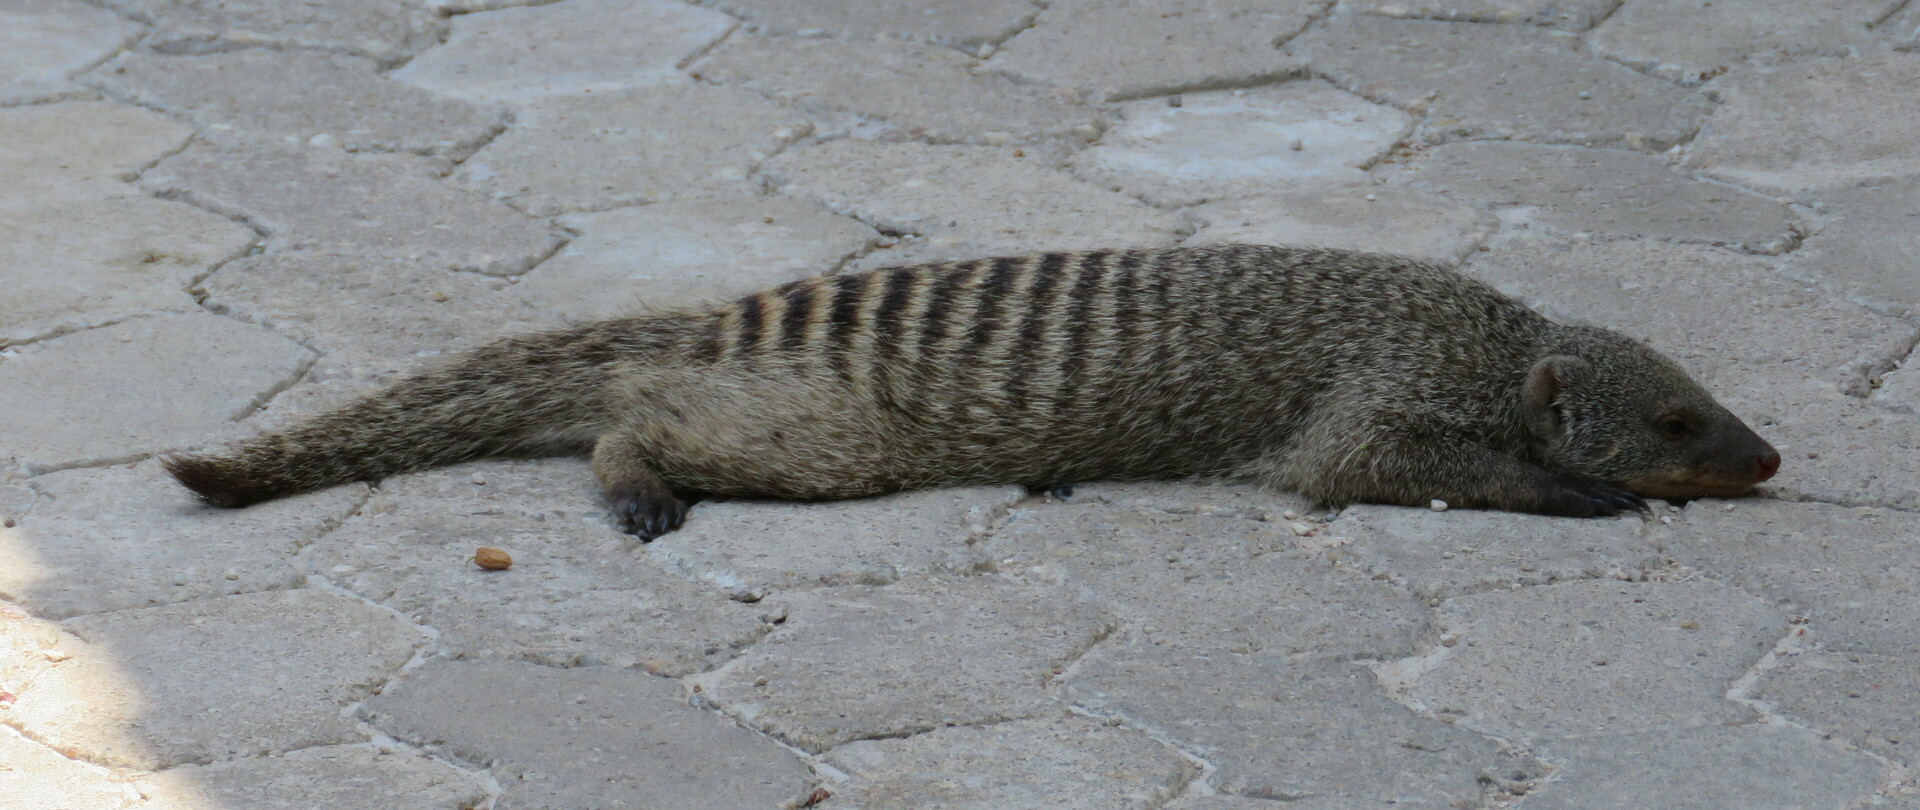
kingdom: Animalia
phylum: Chordata
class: Mammalia
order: Carnivora
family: Herpestidae
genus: Mungos
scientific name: Mungos mungo
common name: Banded mongoose
